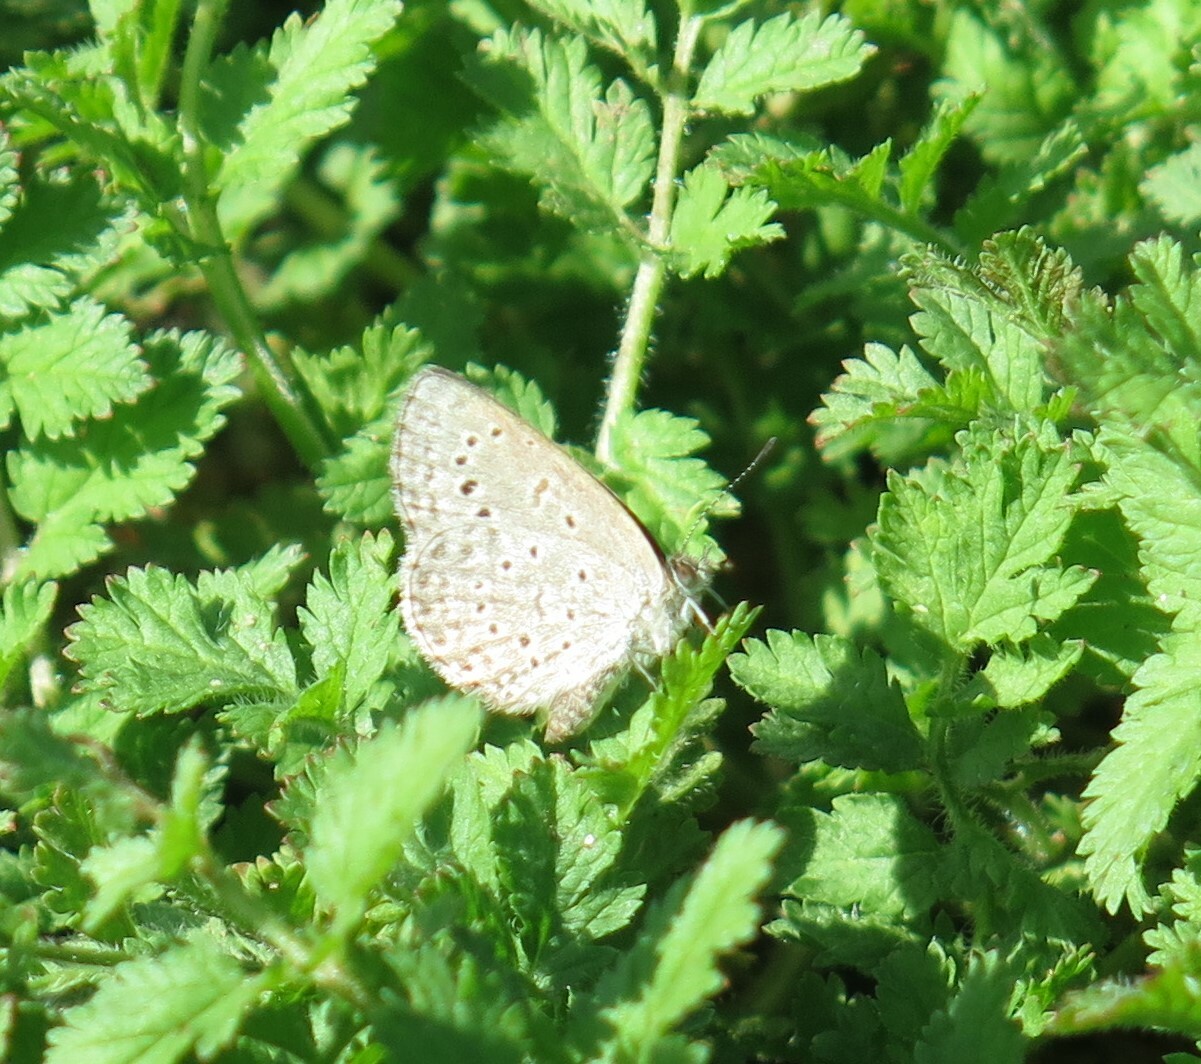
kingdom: Animalia
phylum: Arthropoda
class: Insecta
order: Lepidoptera
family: Lycaenidae
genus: Zizeeria
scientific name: Zizeeria knysna
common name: African grass blue
